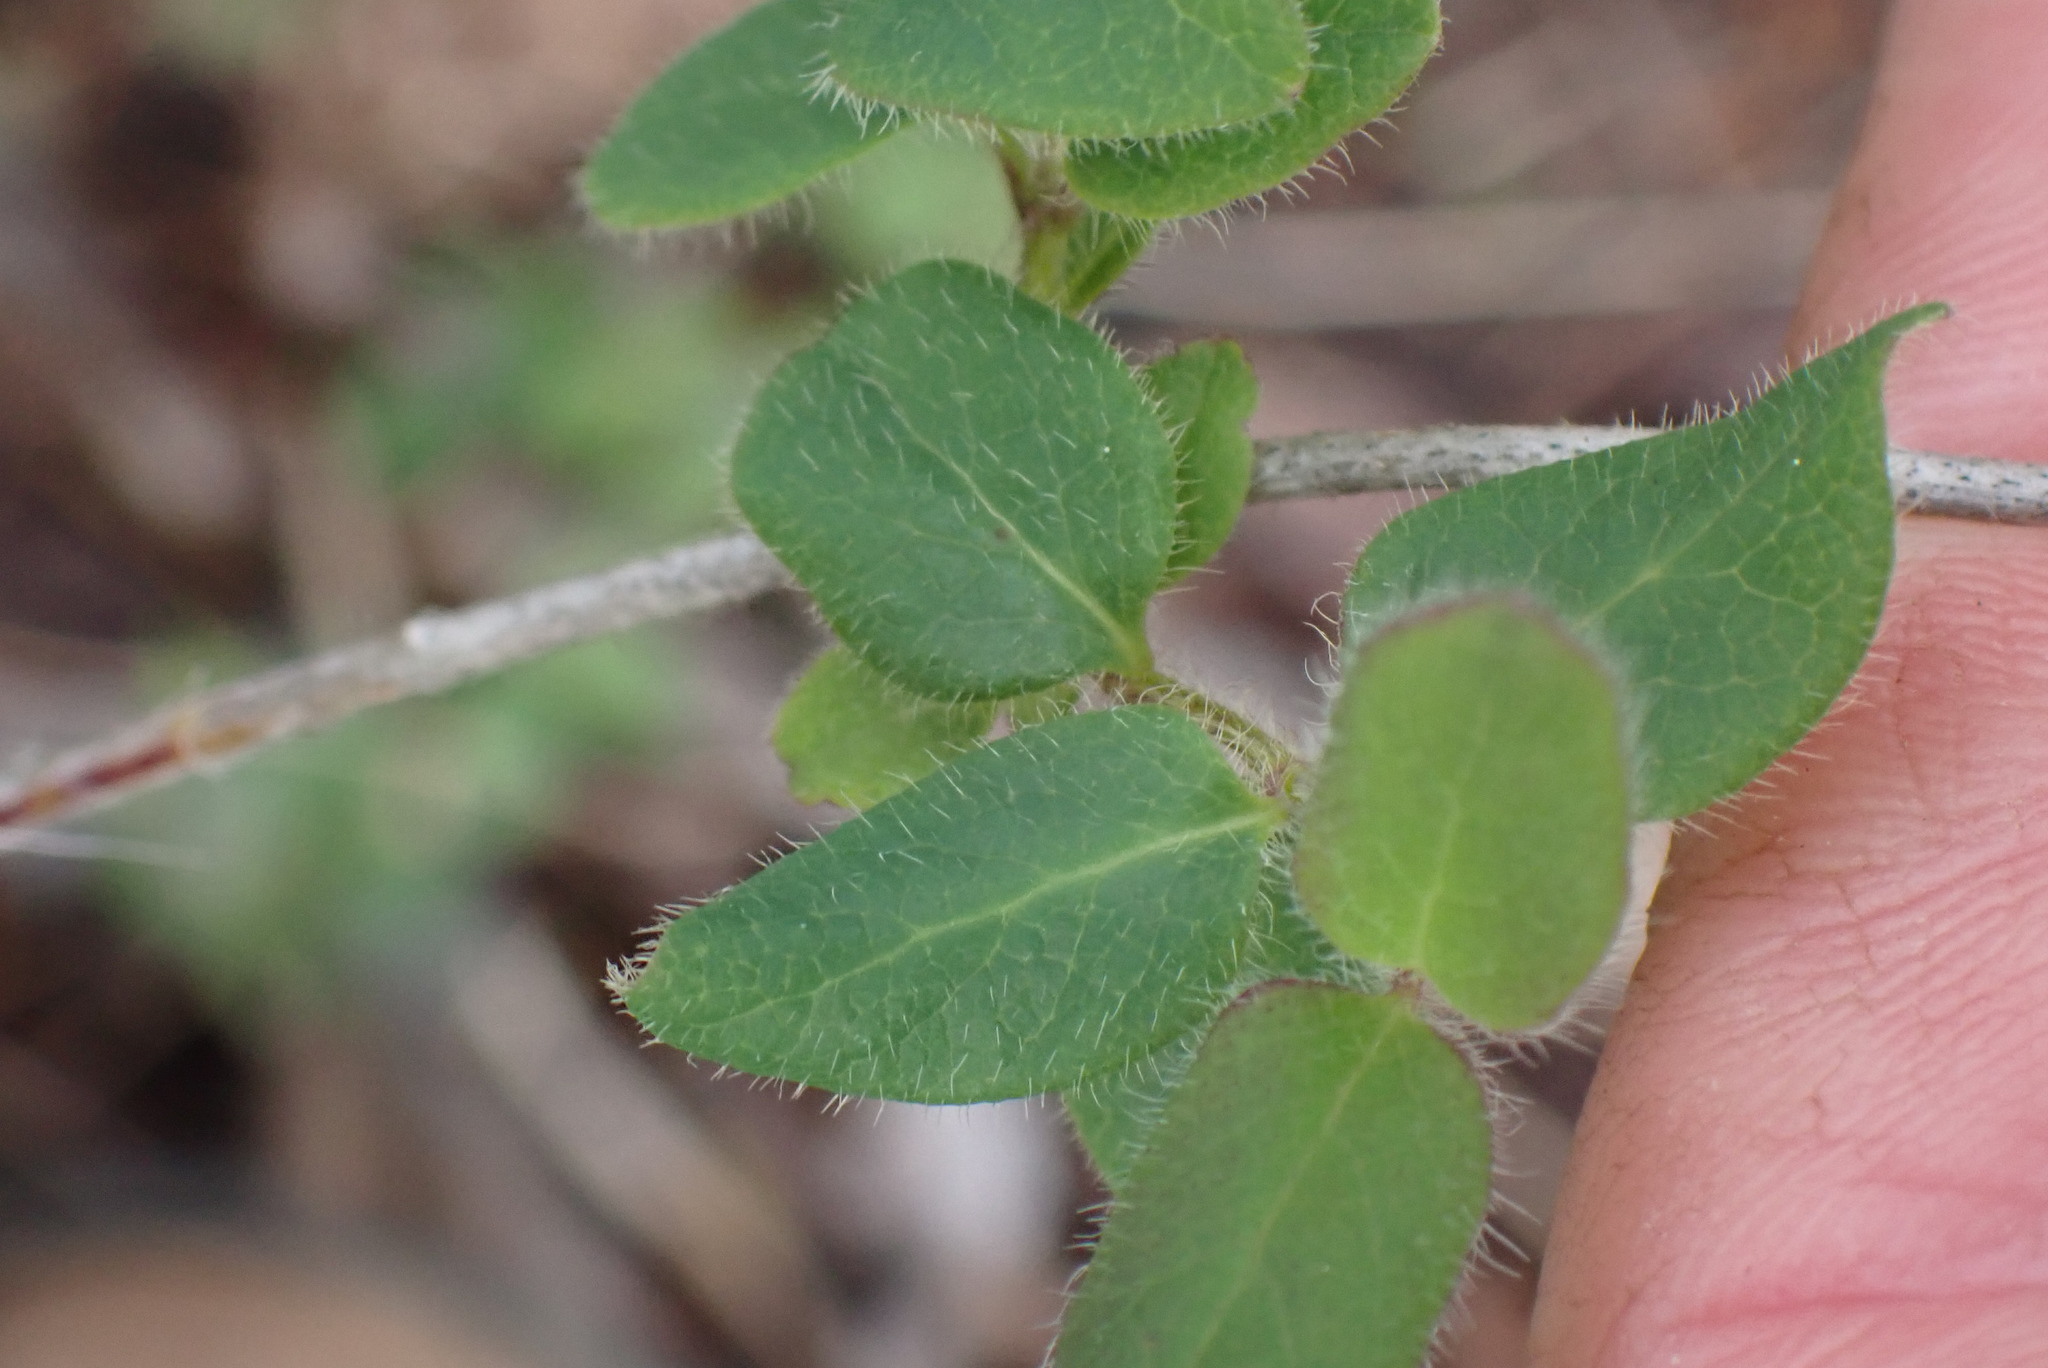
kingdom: Plantae
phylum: Tracheophyta
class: Magnoliopsida
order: Dipsacales
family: Caprifoliaceae
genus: Lonicera
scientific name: Lonicera hispidula
